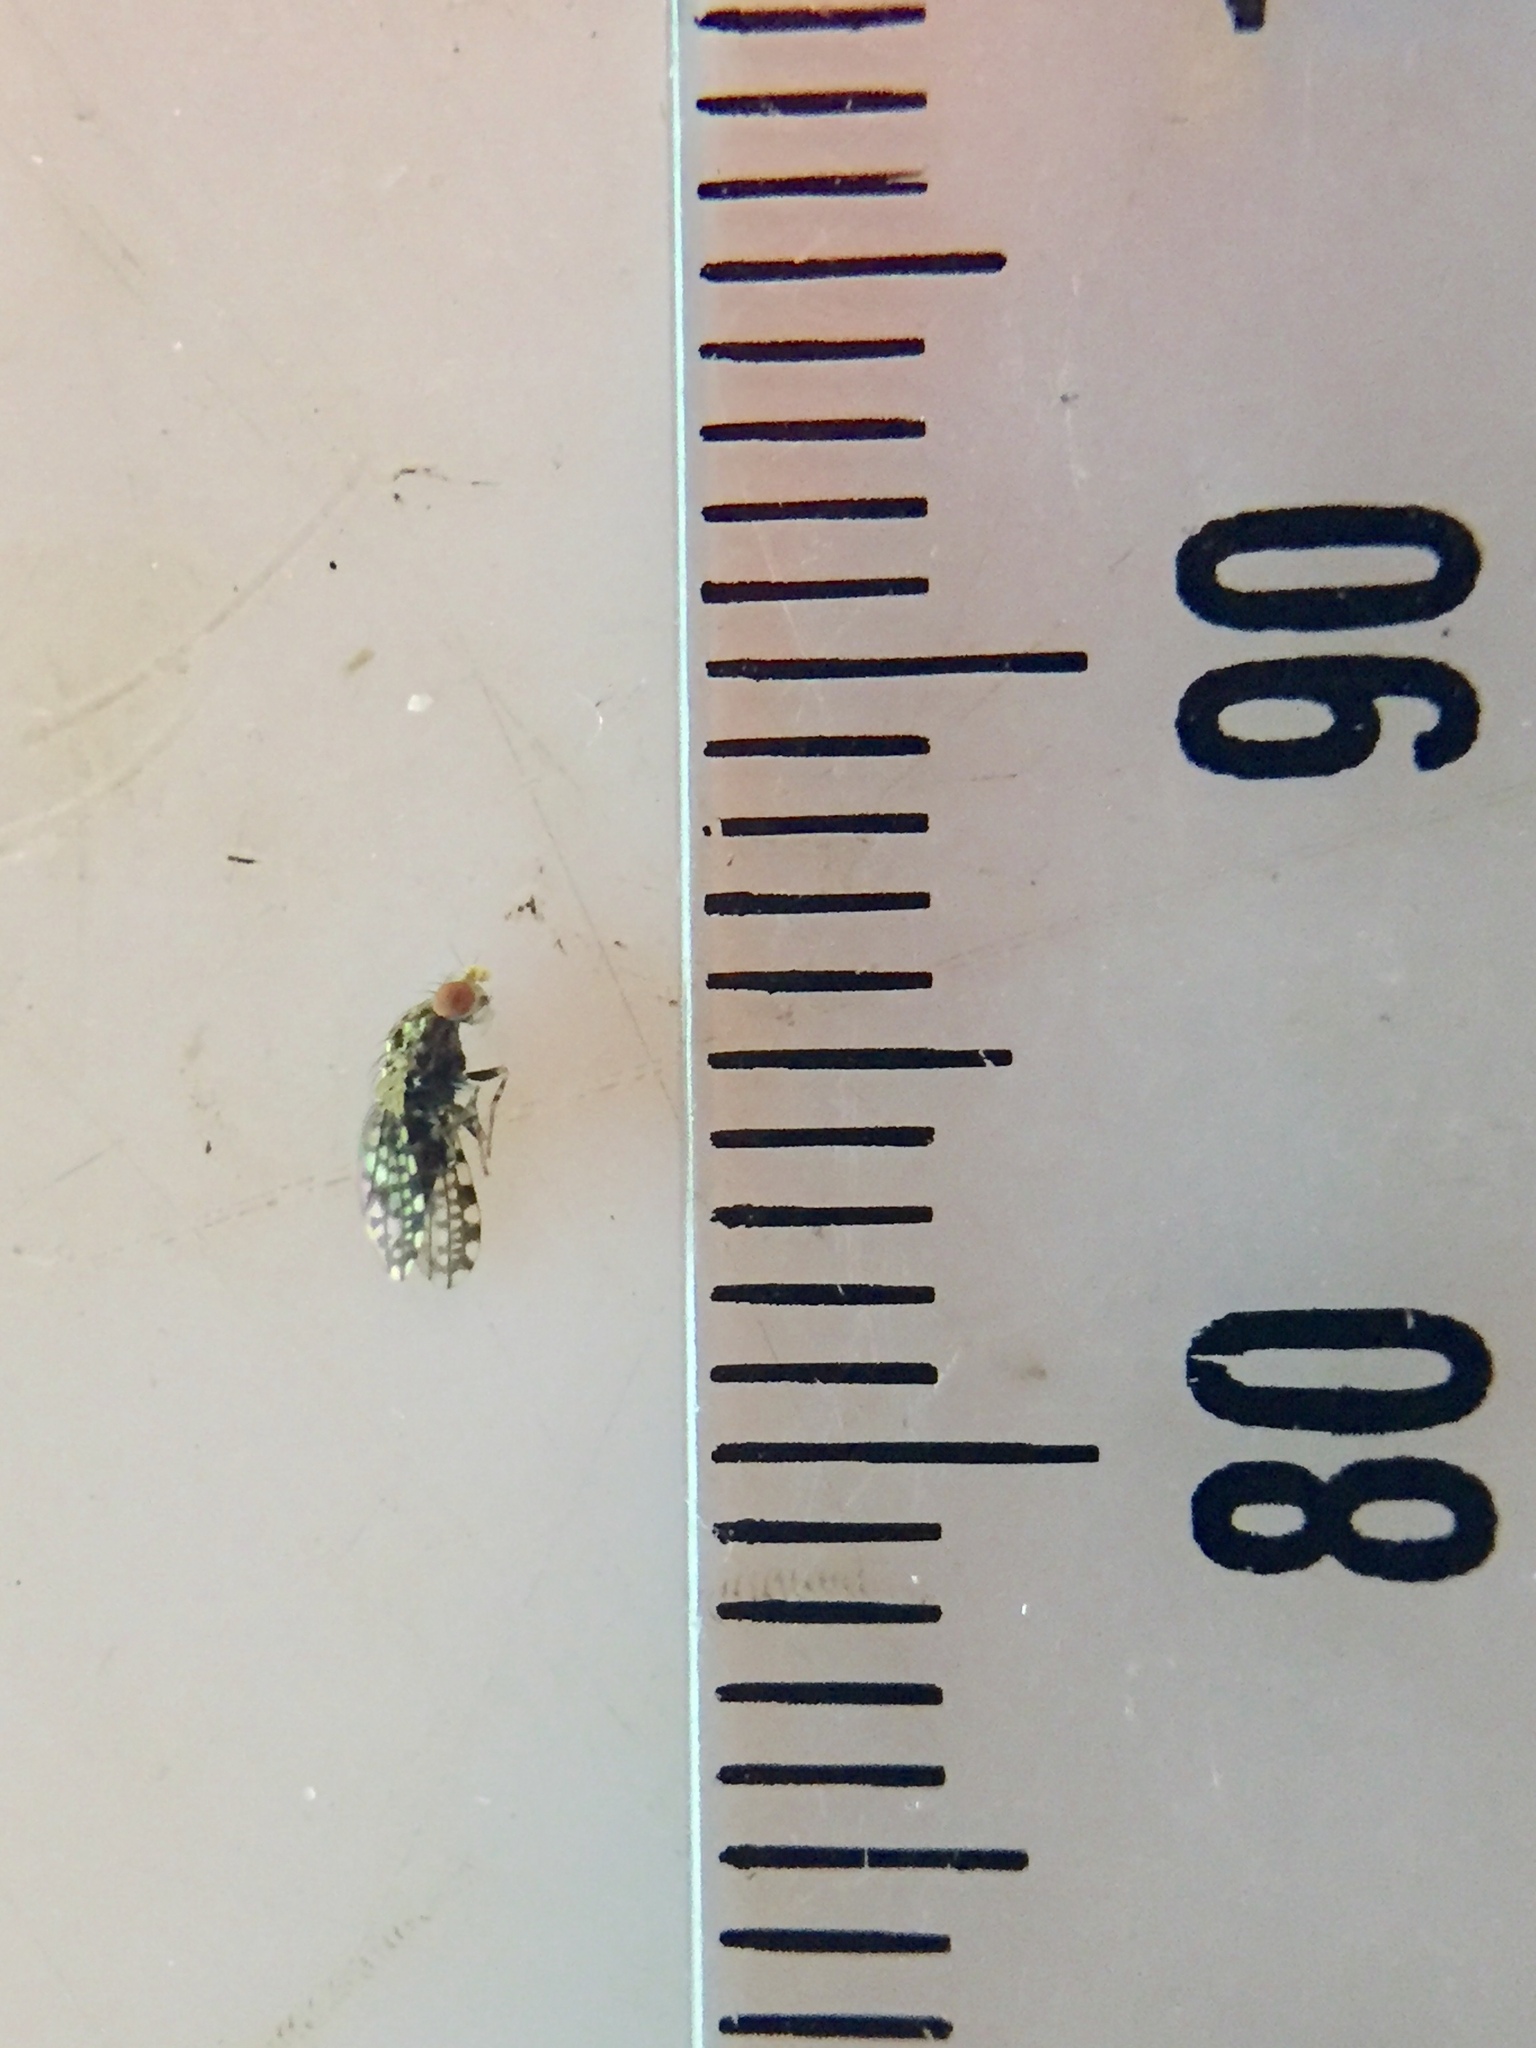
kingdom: Animalia
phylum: Arthropoda
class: Insecta
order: Diptera
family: Heleomyzidae
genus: Xeneura
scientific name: Xeneura picata
